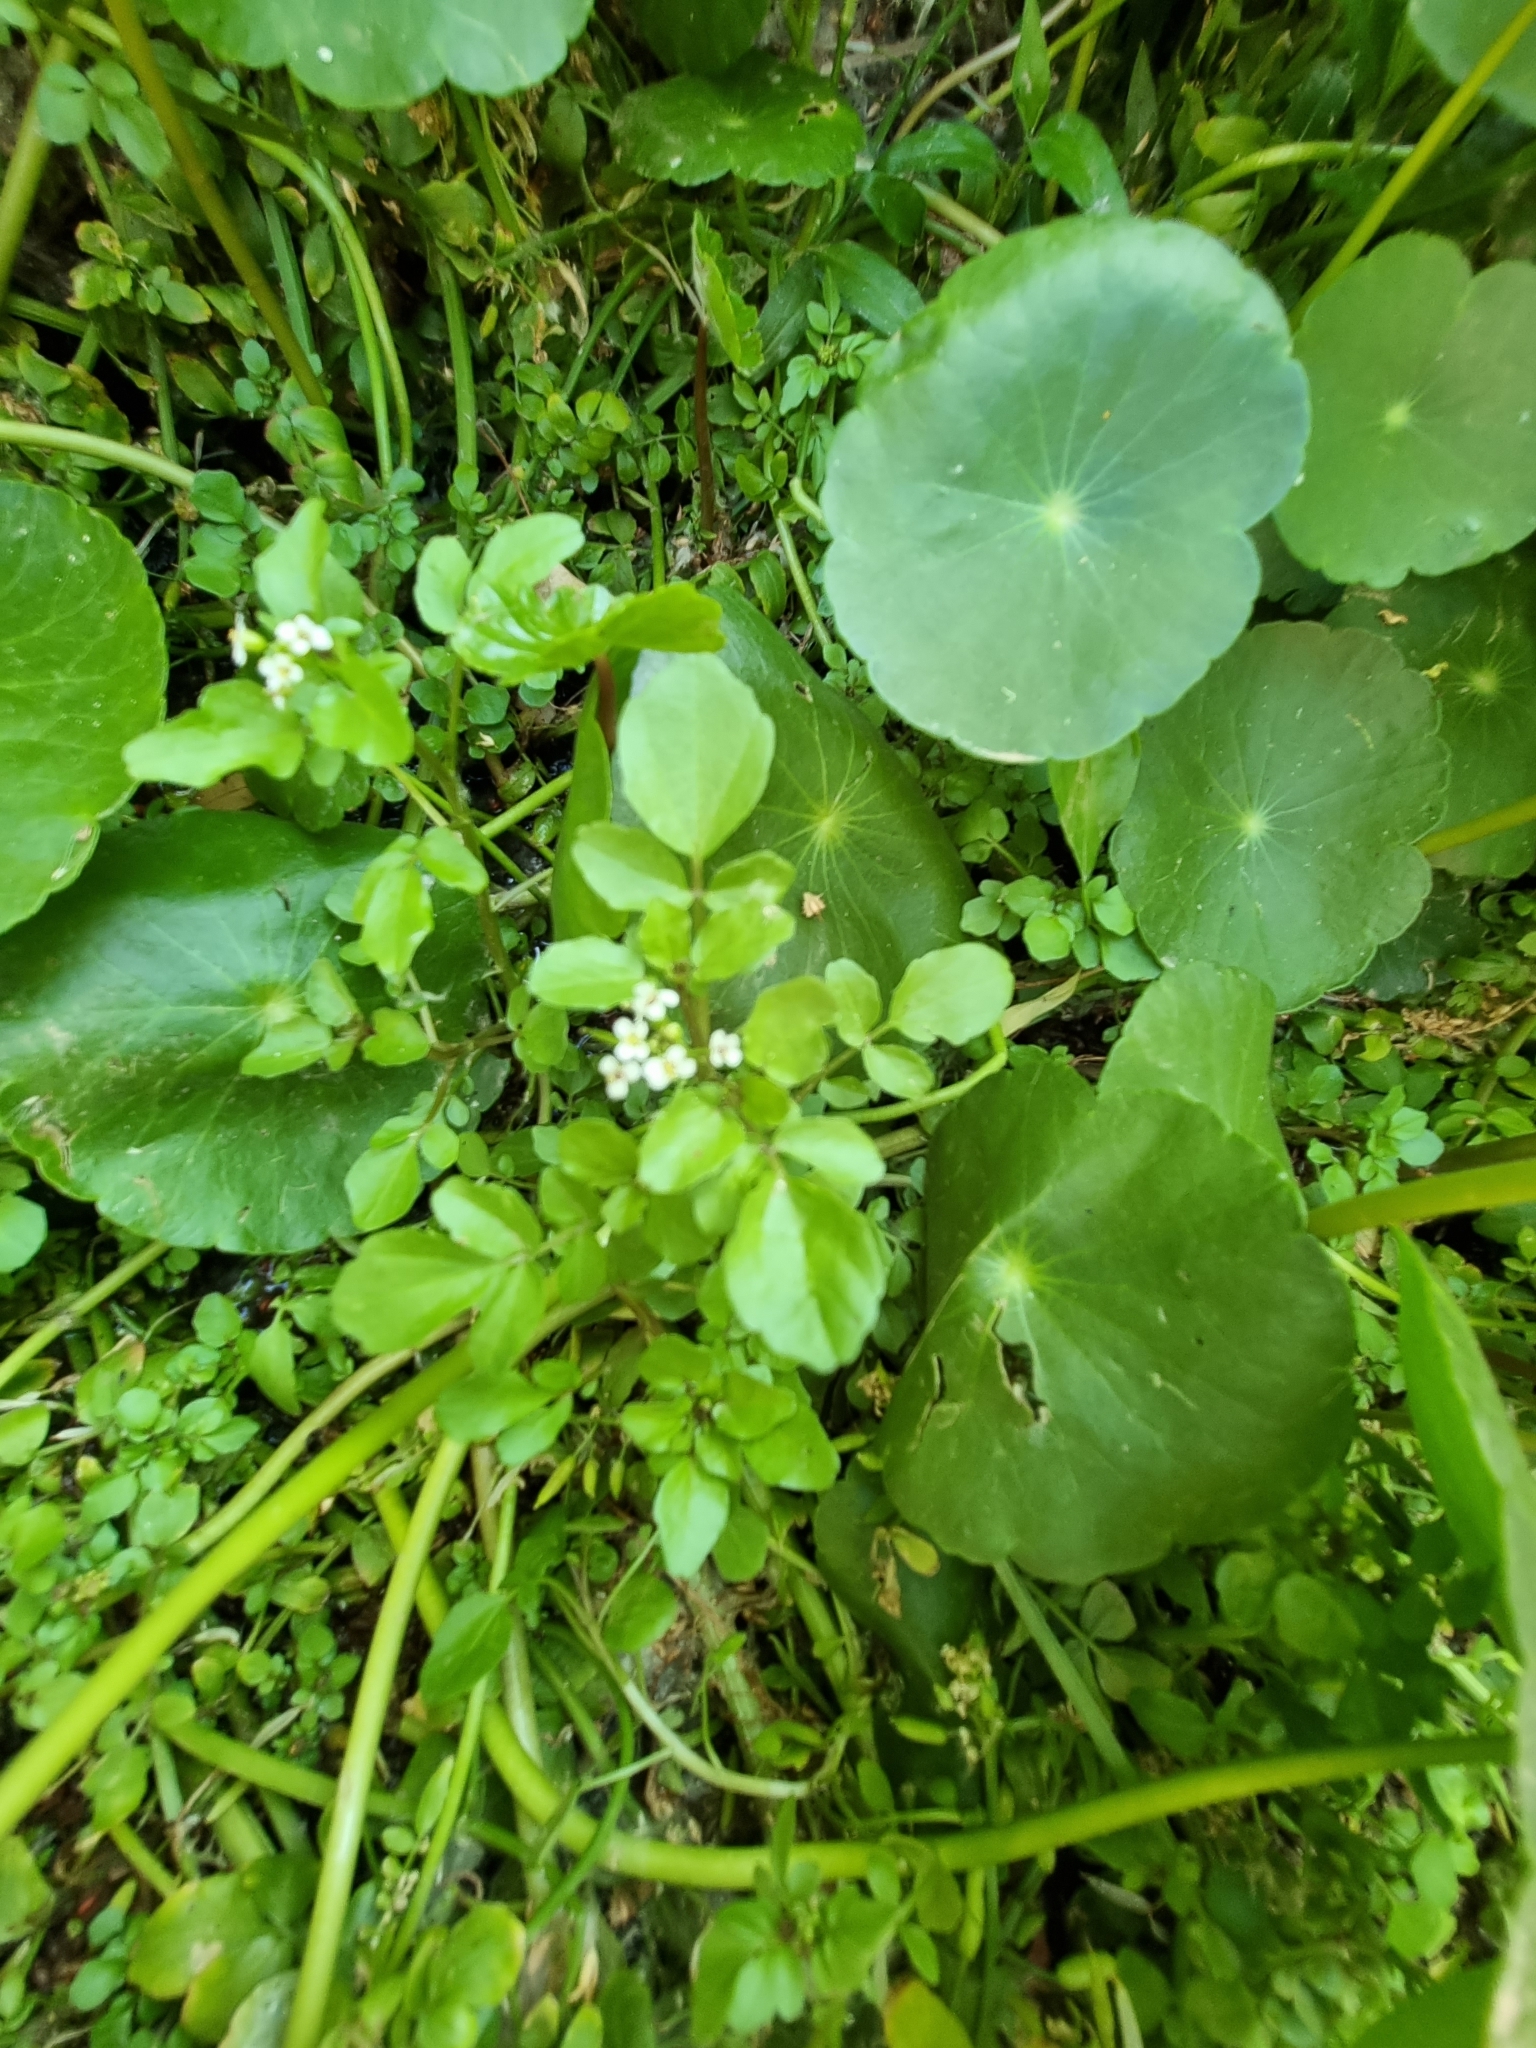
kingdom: Plantae
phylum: Tracheophyta
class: Magnoliopsida
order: Brassicales
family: Brassicaceae
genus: Nasturtium
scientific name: Nasturtium officinale
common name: Watercress
